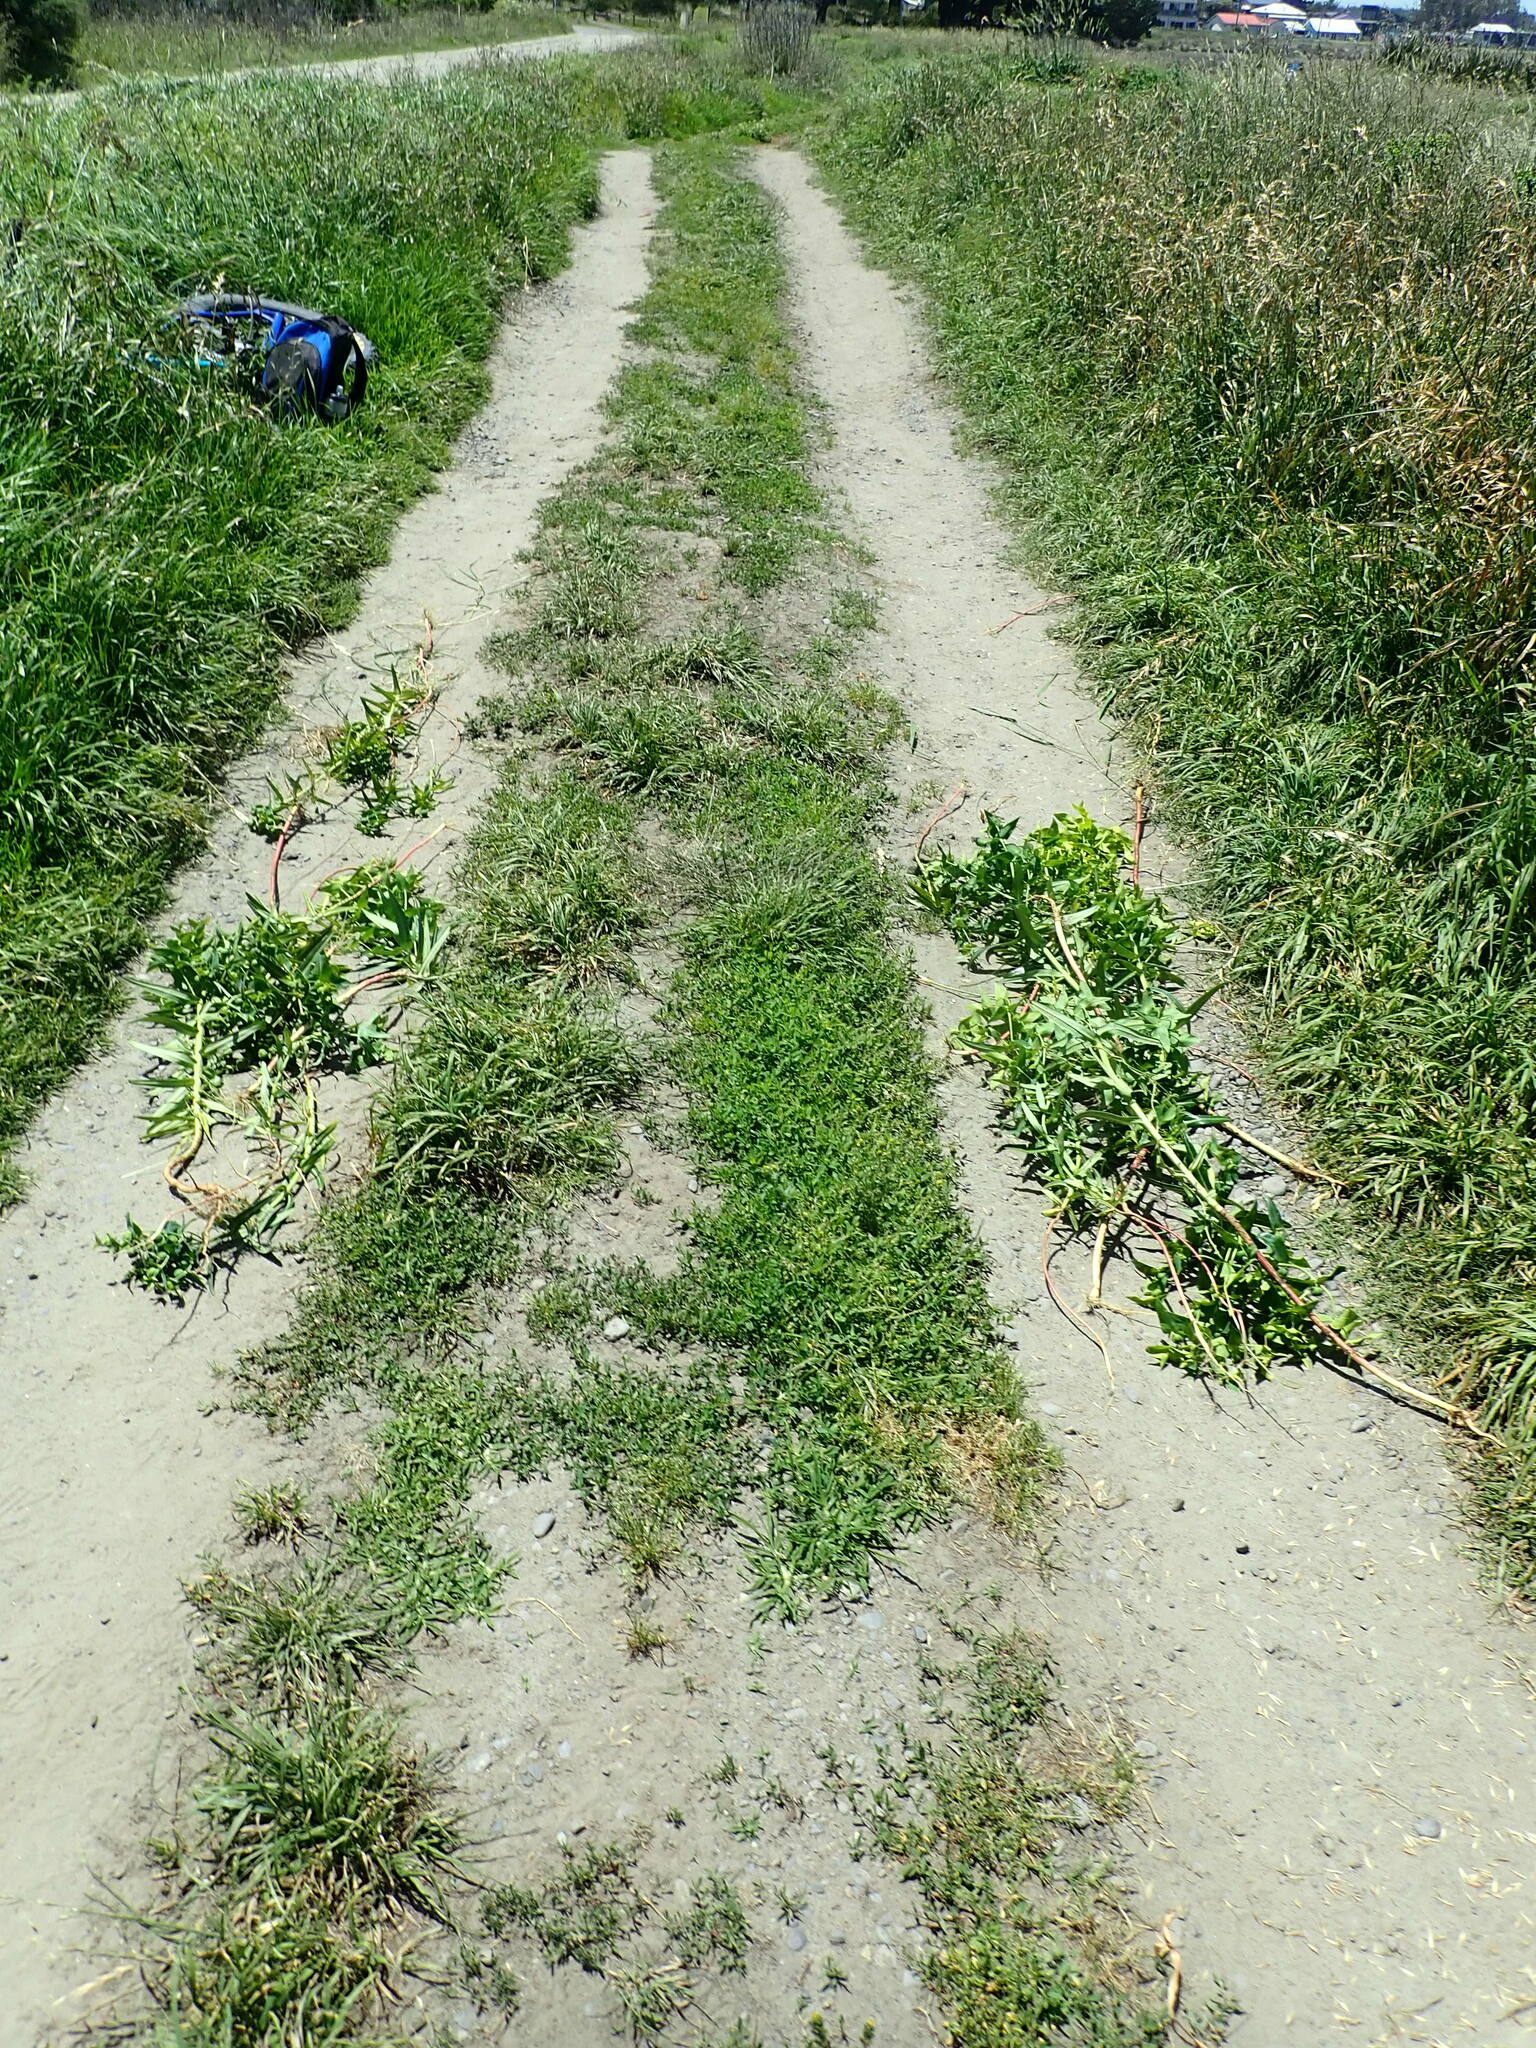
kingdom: Plantae
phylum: Tracheophyta
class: Magnoliopsida
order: Malpighiales
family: Euphorbiaceae
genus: Euphorbia
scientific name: Euphorbia lathyris
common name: Caper spurge
